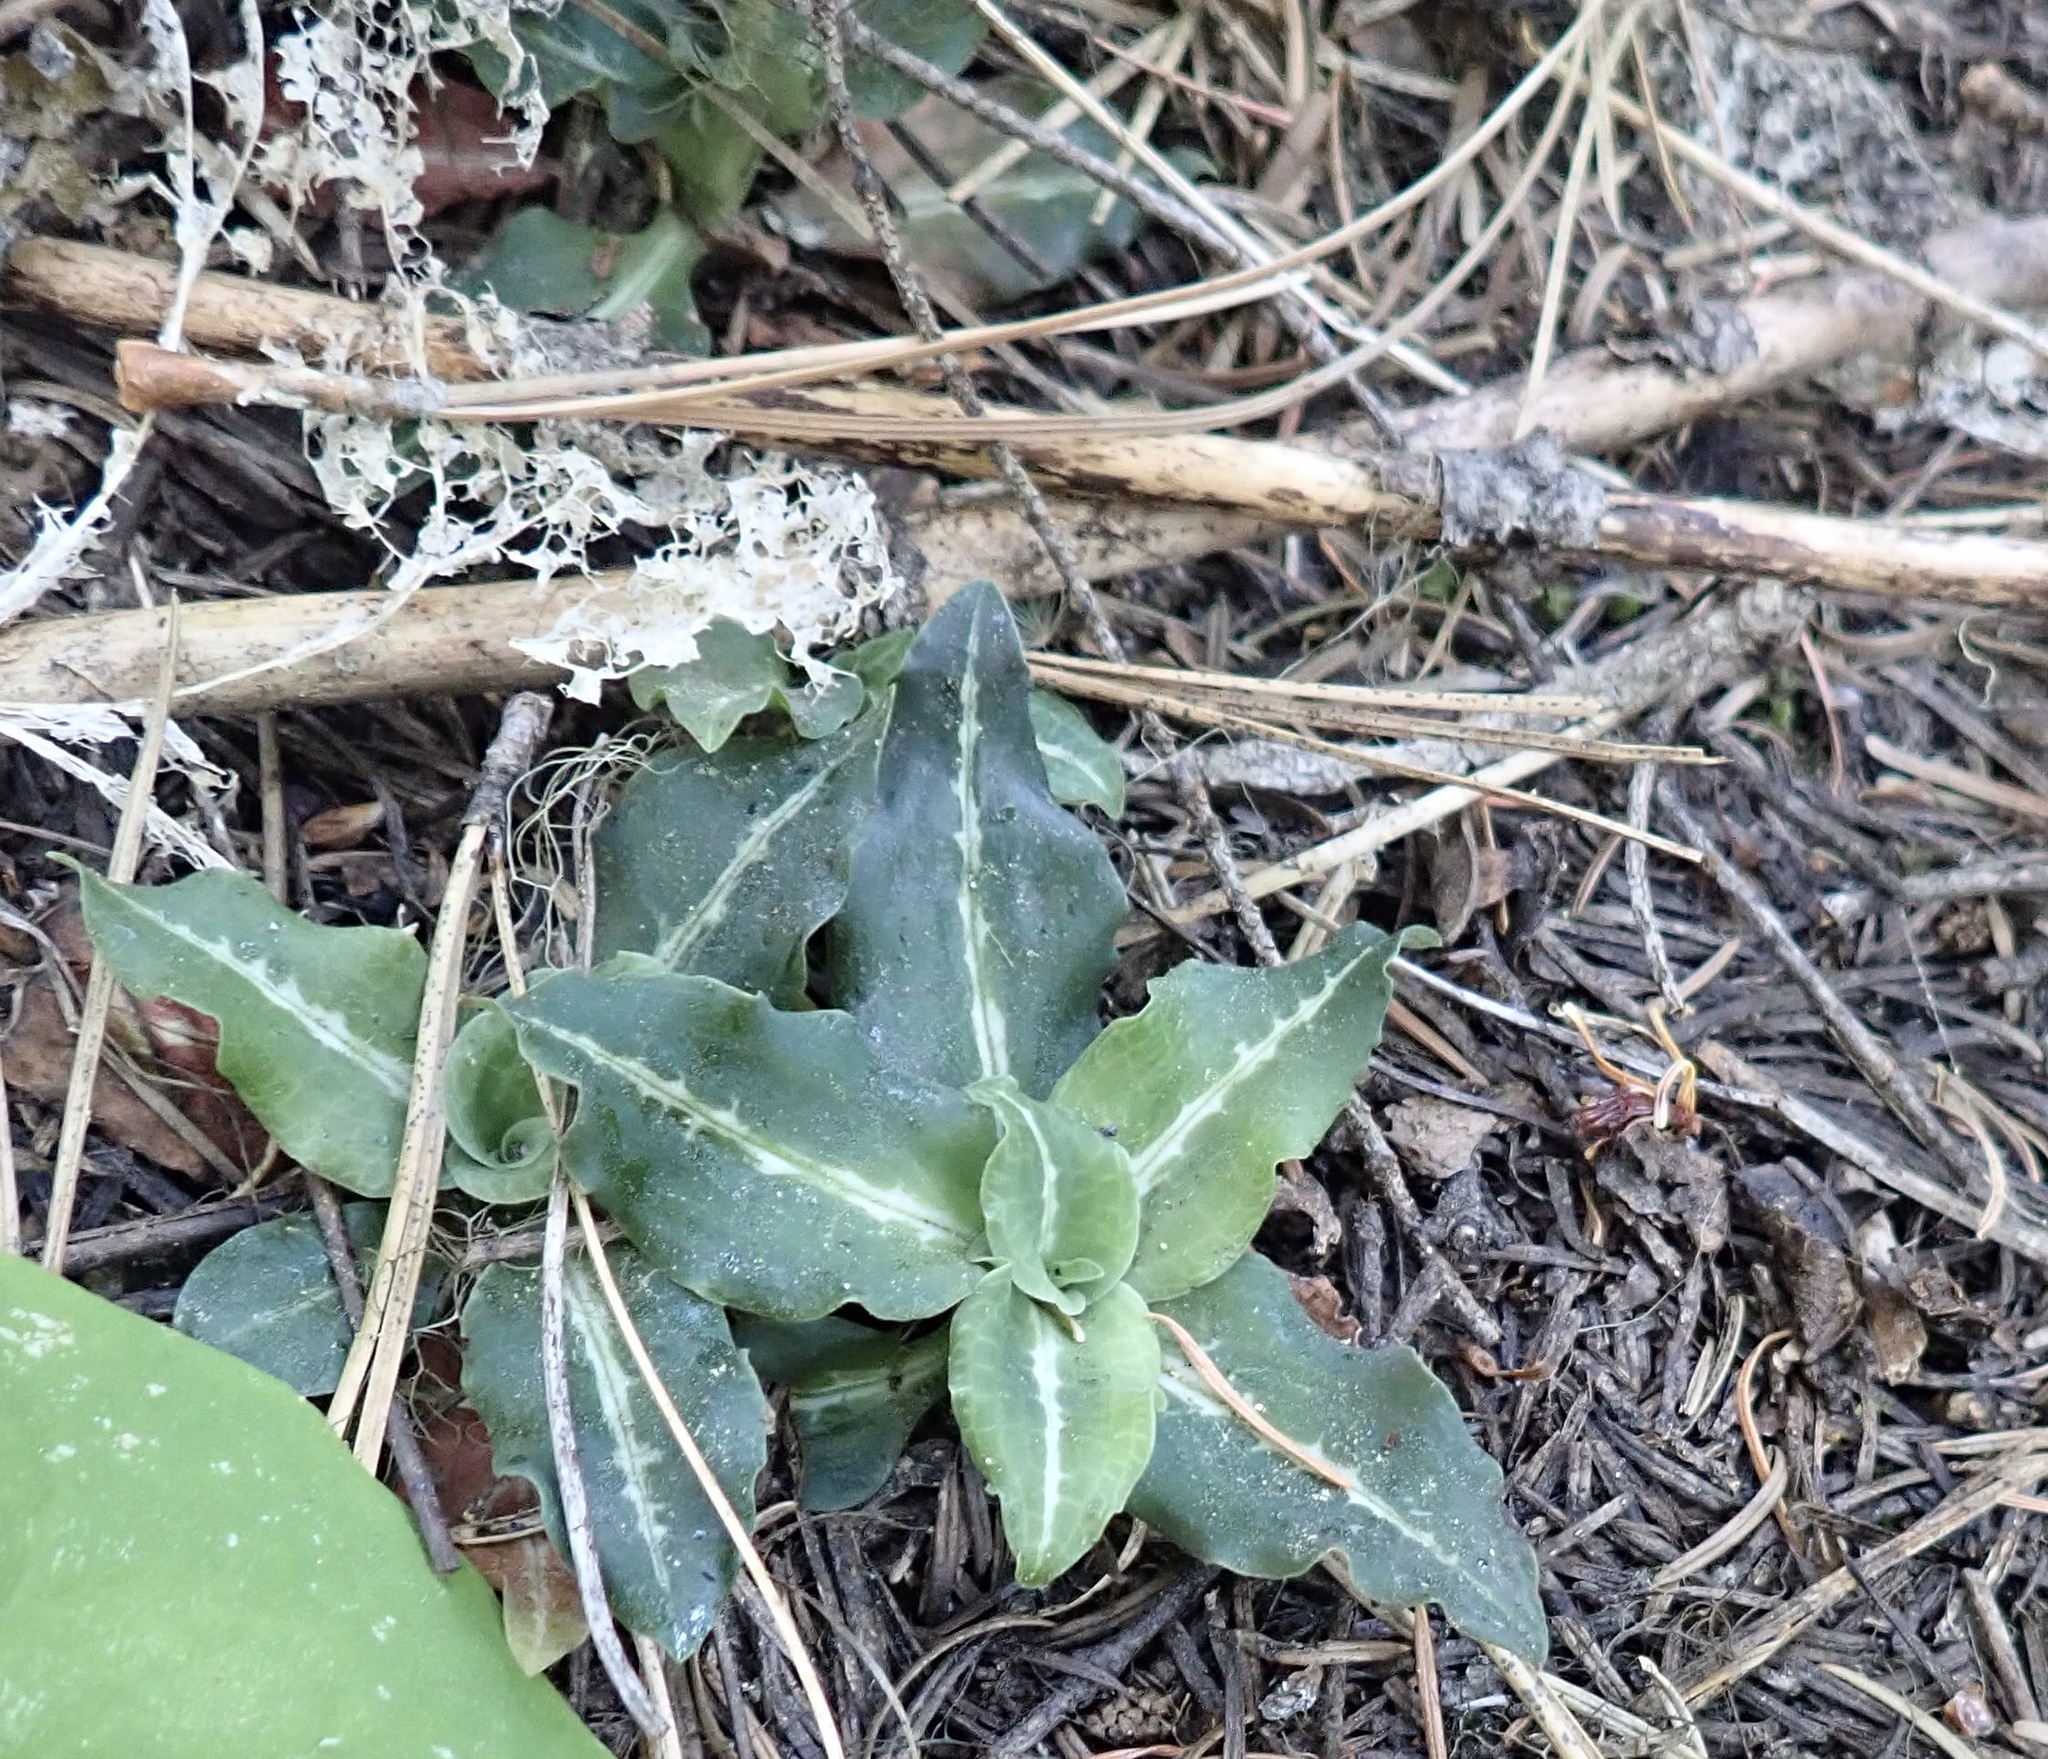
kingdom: Plantae
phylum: Tracheophyta
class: Liliopsida
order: Asparagales
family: Orchidaceae
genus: Goodyera
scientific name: Goodyera oblongifolia
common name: Giant rattlesnake-plantain
